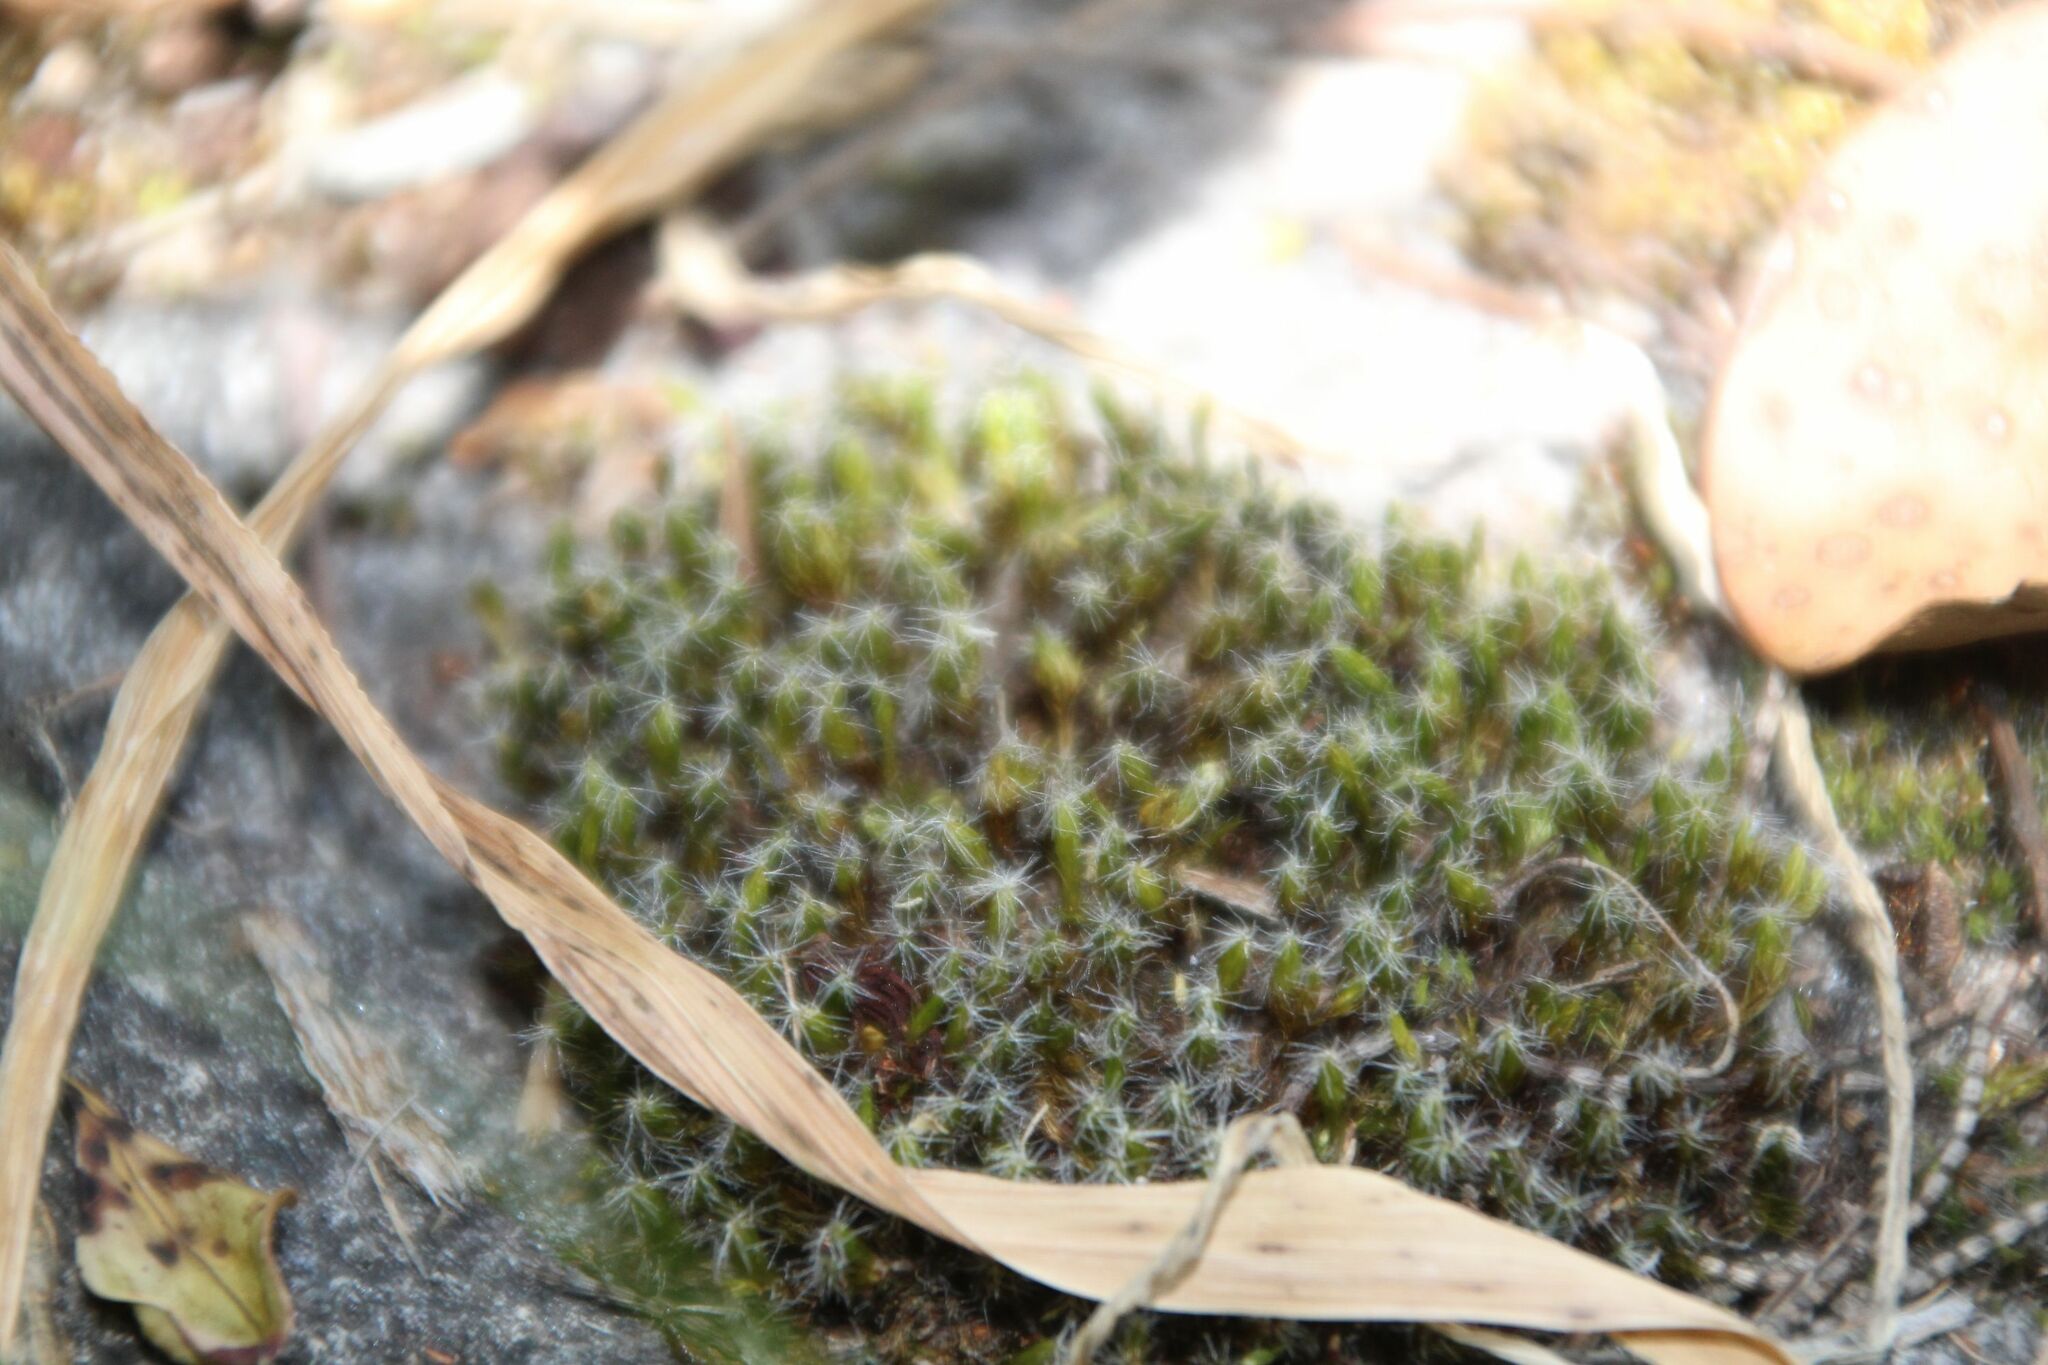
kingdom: Plantae
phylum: Bryophyta
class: Bryopsida
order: Dicranales
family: Leucobryaceae
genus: Campylopus
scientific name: Campylopus introflexus
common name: Heath star moss
